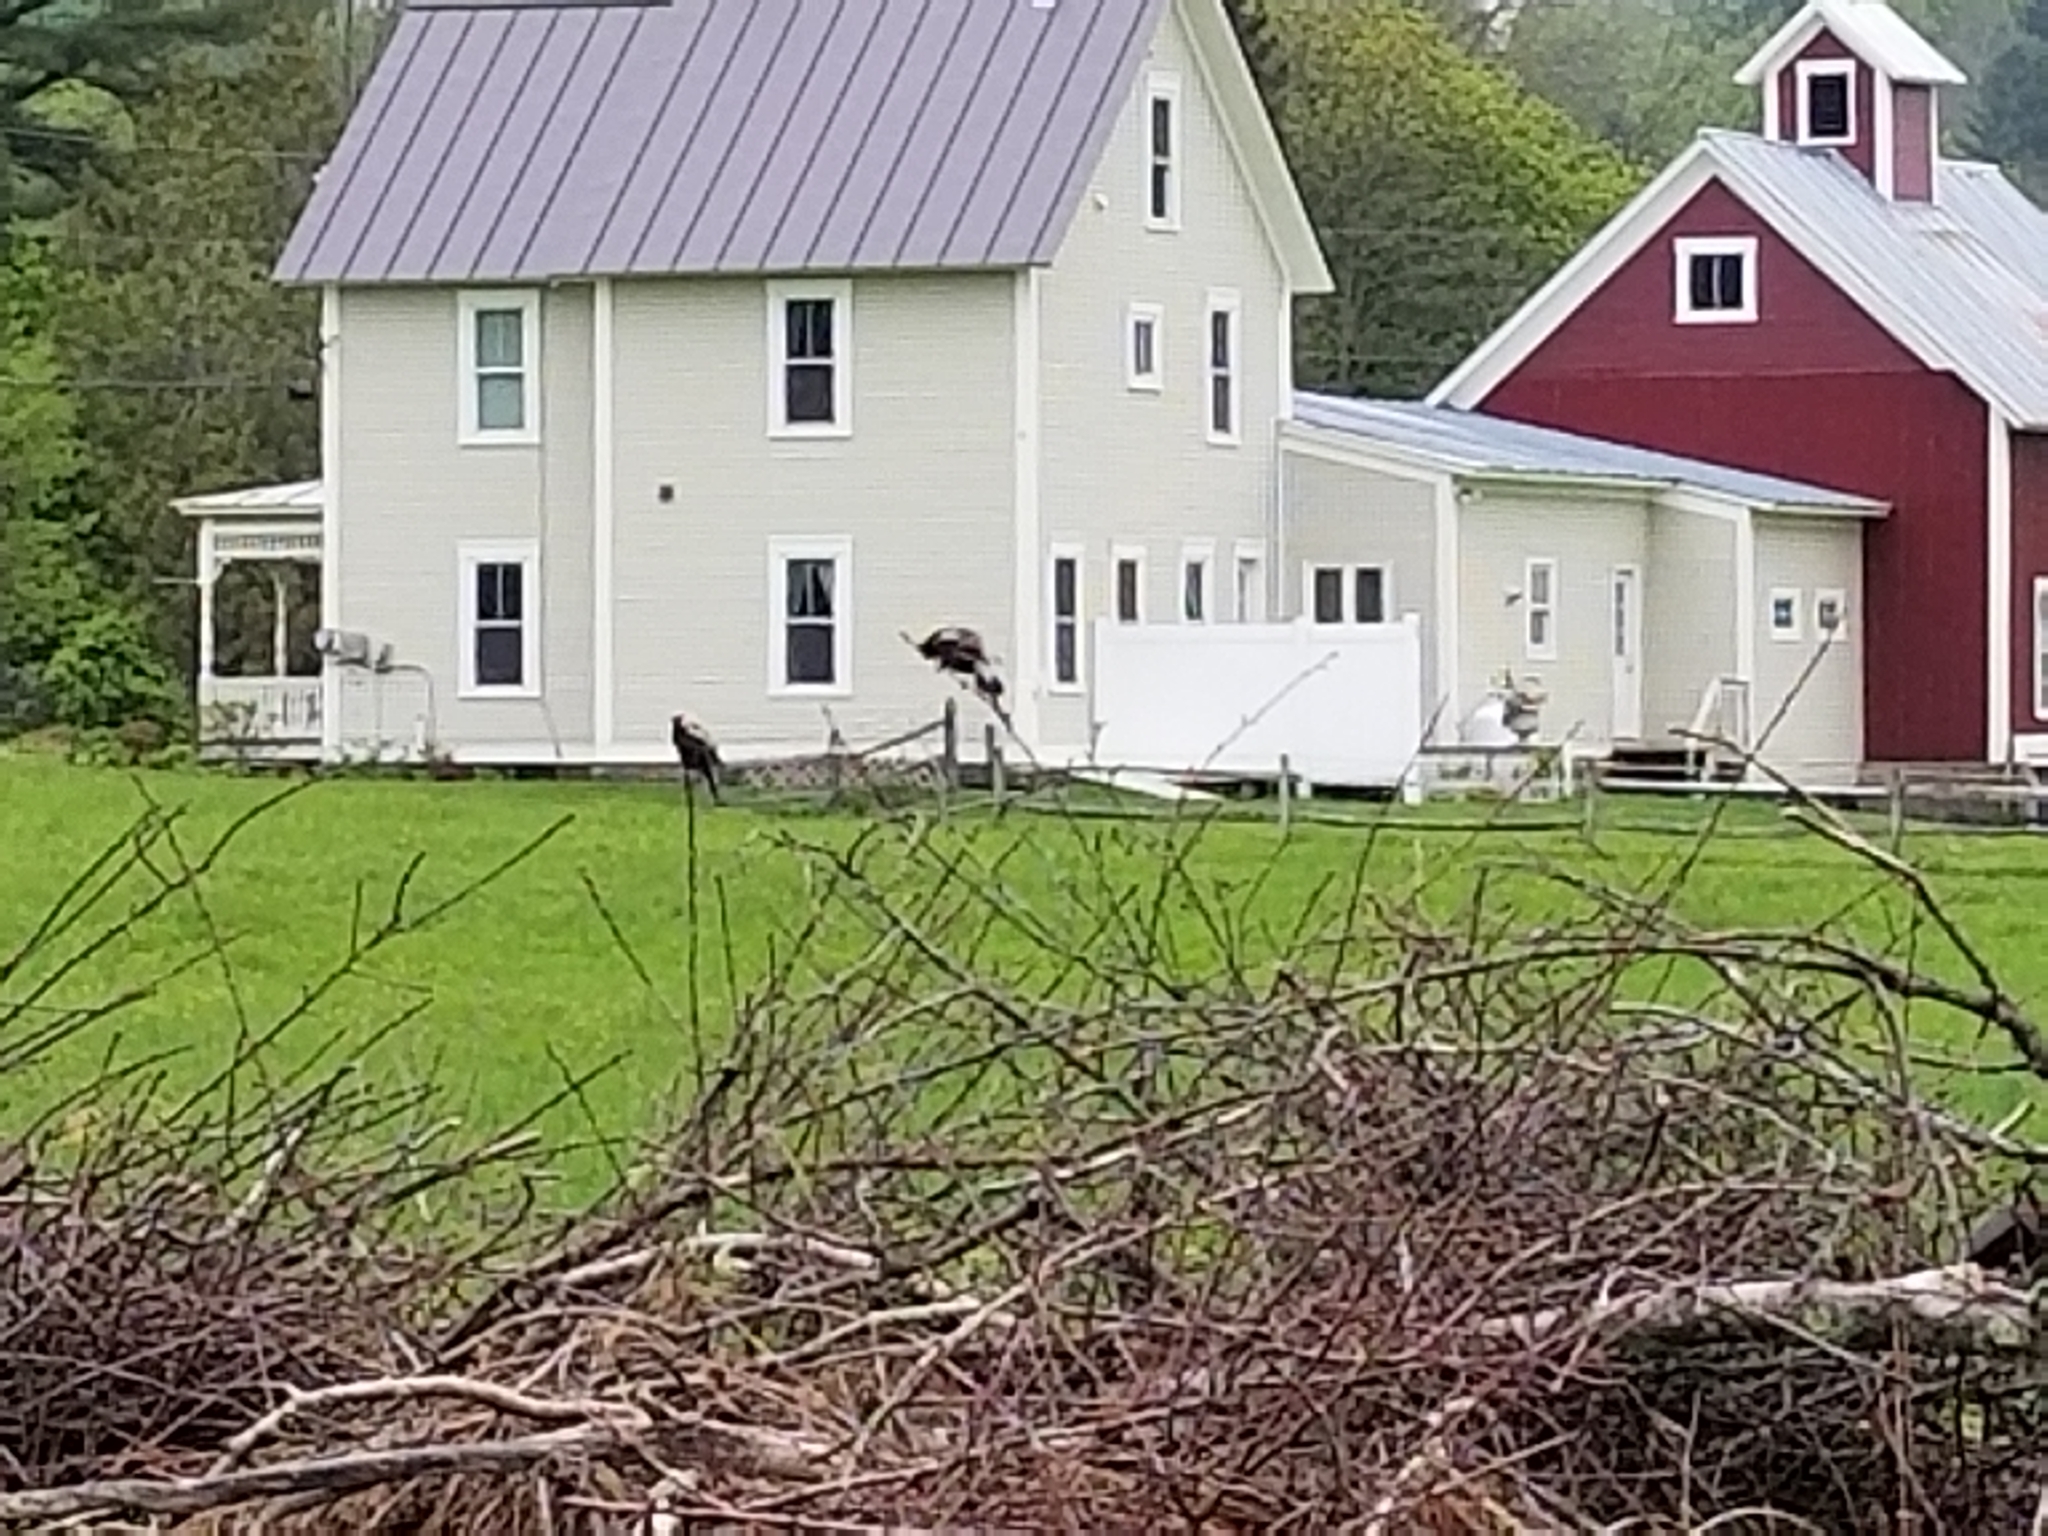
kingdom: Animalia
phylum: Chordata
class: Aves
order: Passeriformes
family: Icteridae
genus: Dolichonyx
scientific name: Dolichonyx oryzivorus
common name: Bobolink
